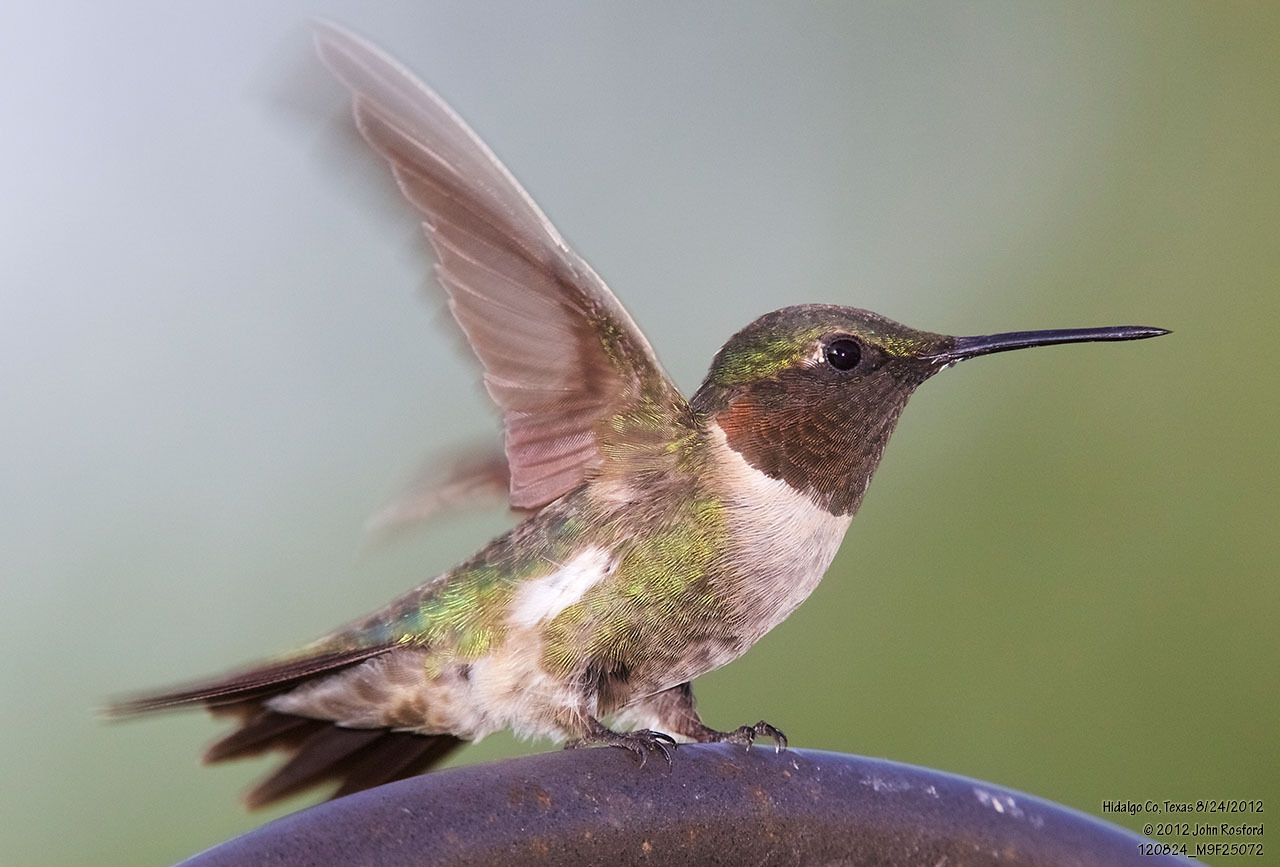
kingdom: Animalia
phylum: Chordata
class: Aves
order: Apodiformes
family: Trochilidae
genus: Archilochus
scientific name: Archilochus colubris
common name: Ruby-throated hummingbird
